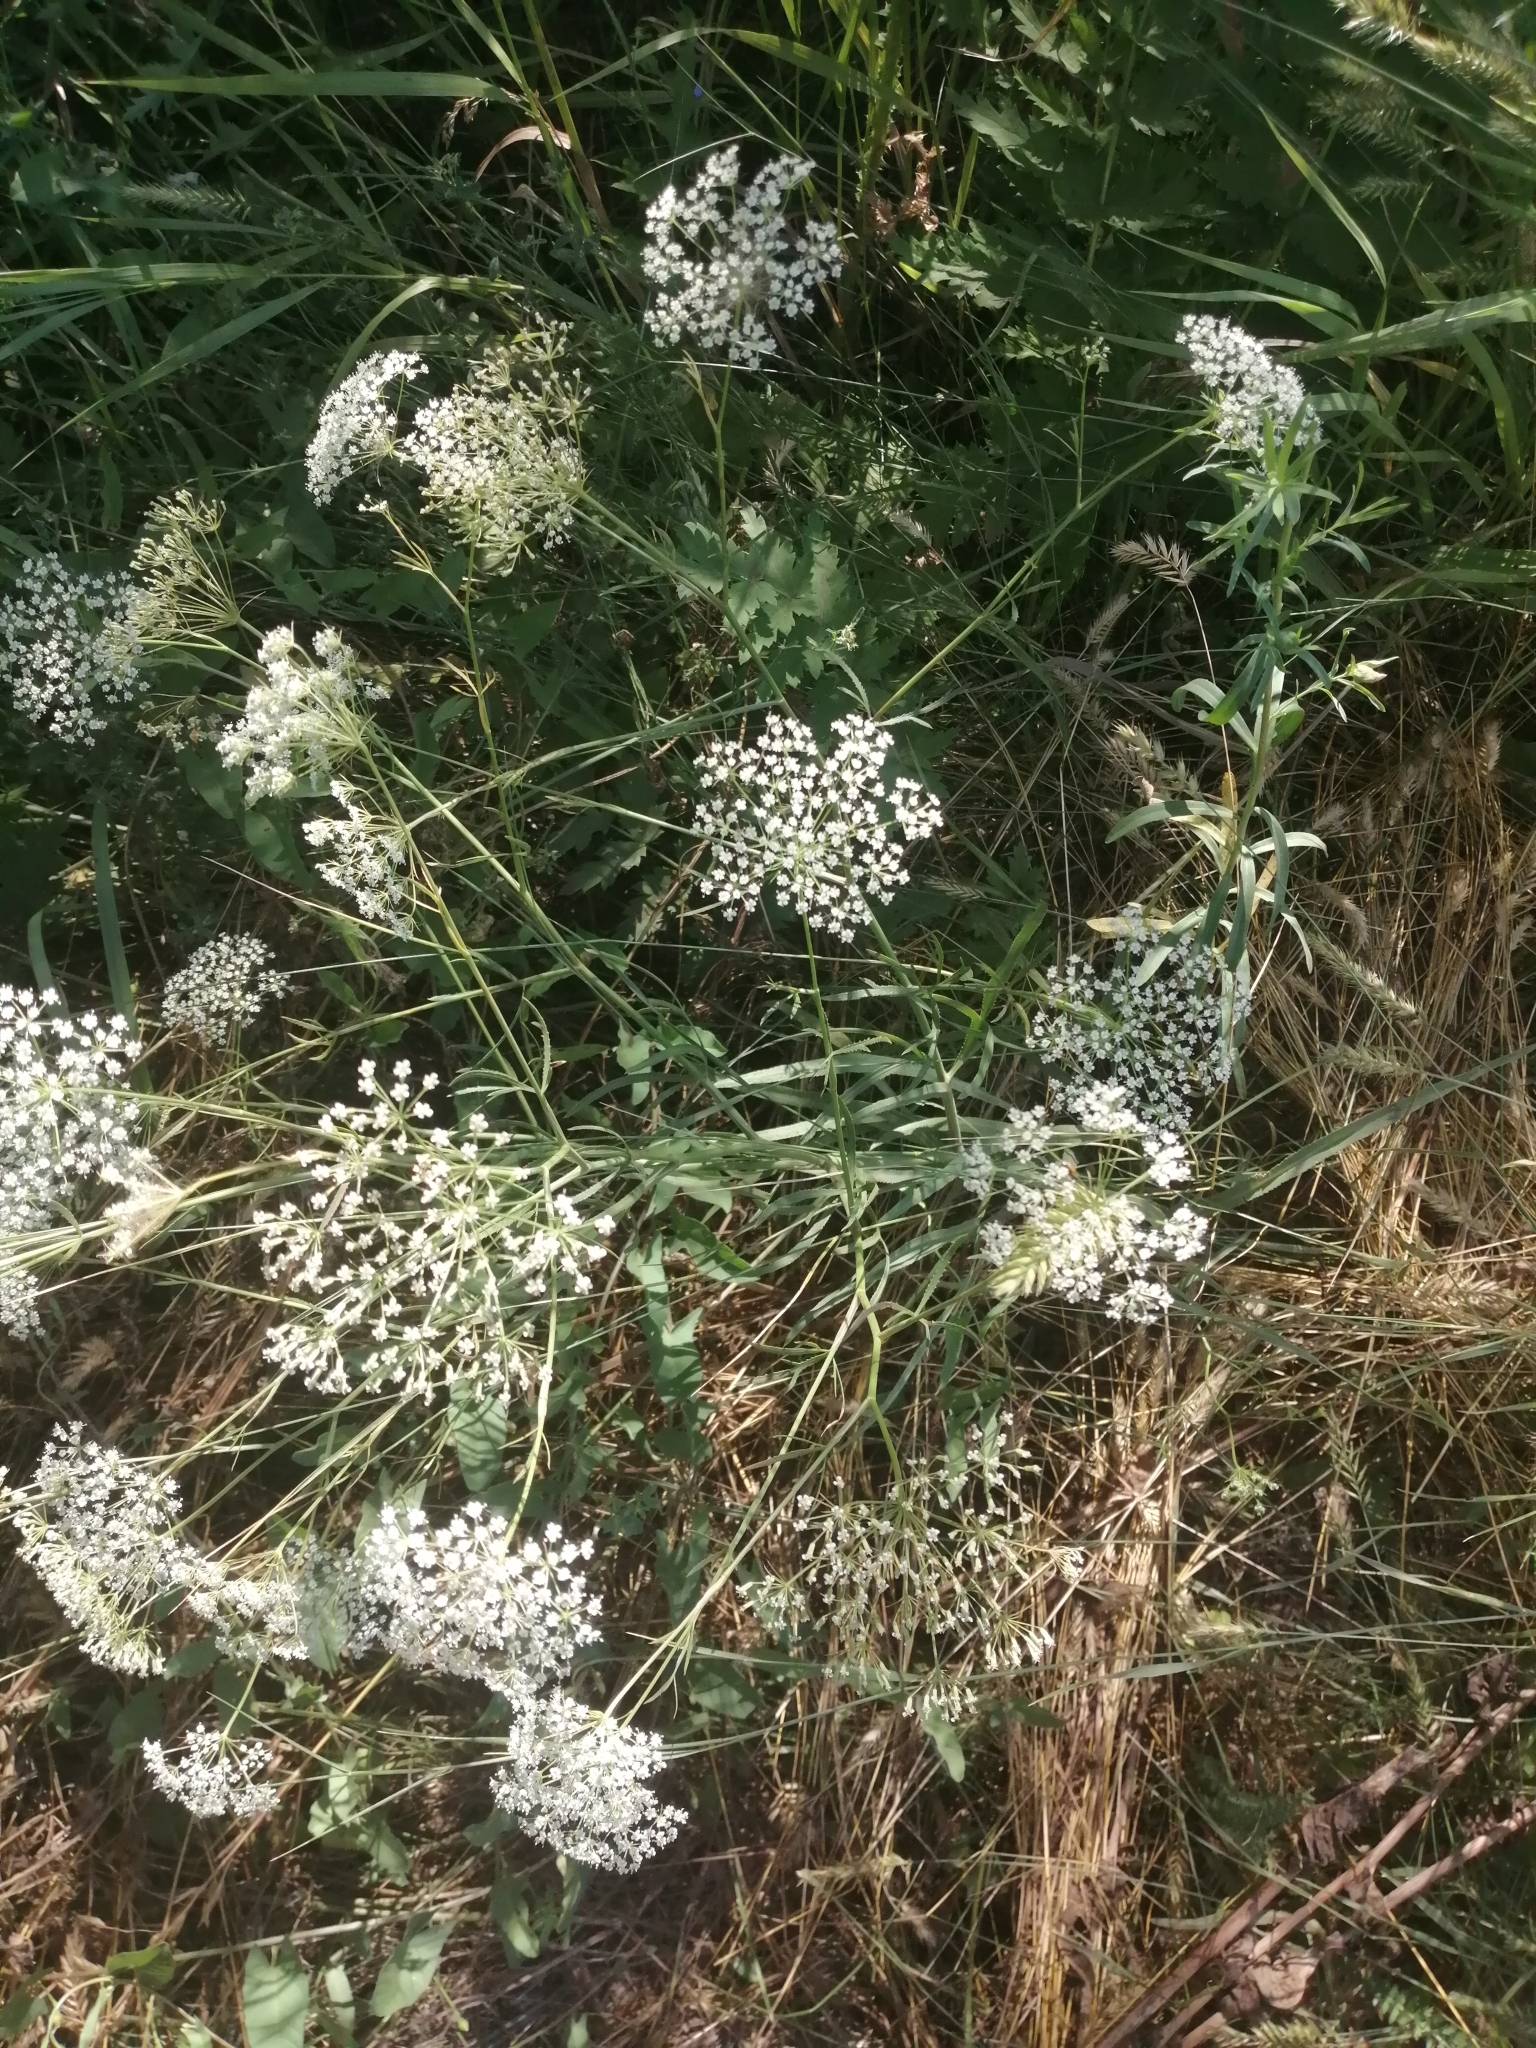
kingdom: Plantae
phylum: Tracheophyta
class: Magnoliopsida
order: Apiales
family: Apiaceae
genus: Falcaria
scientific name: Falcaria vulgaris
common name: Longleaf
